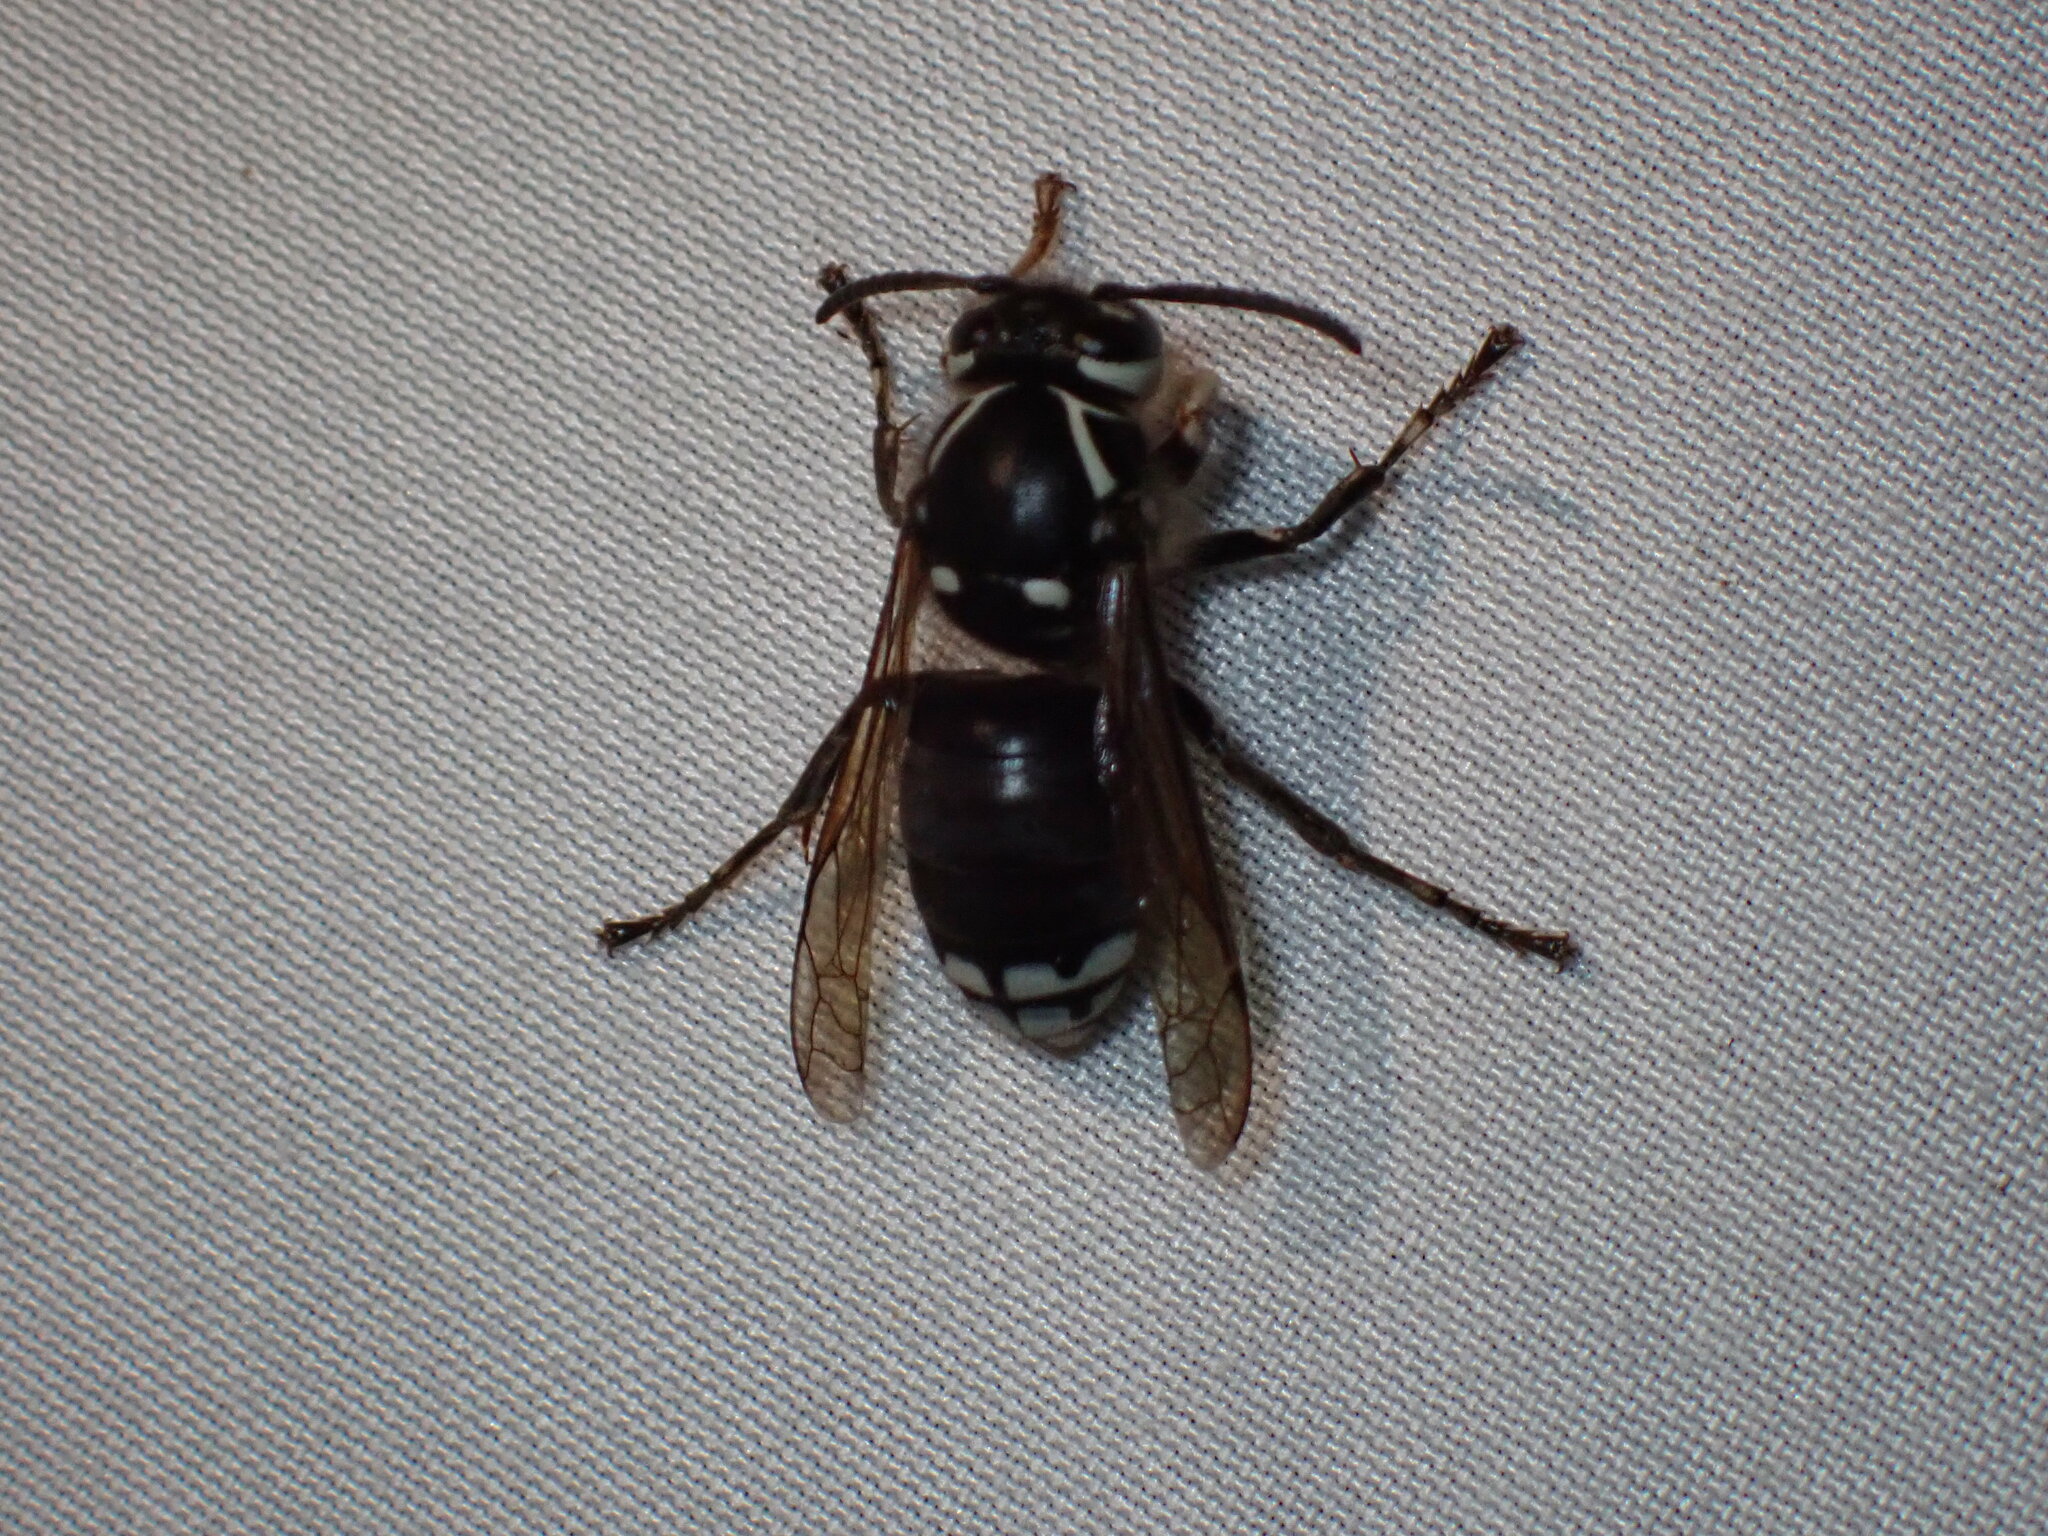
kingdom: Animalia
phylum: Arthropoda
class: Insecta
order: Hymenoptera
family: Vespidae
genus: Dolichovespula
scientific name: Dolichovespula maculata
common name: Bald-faced hornet
